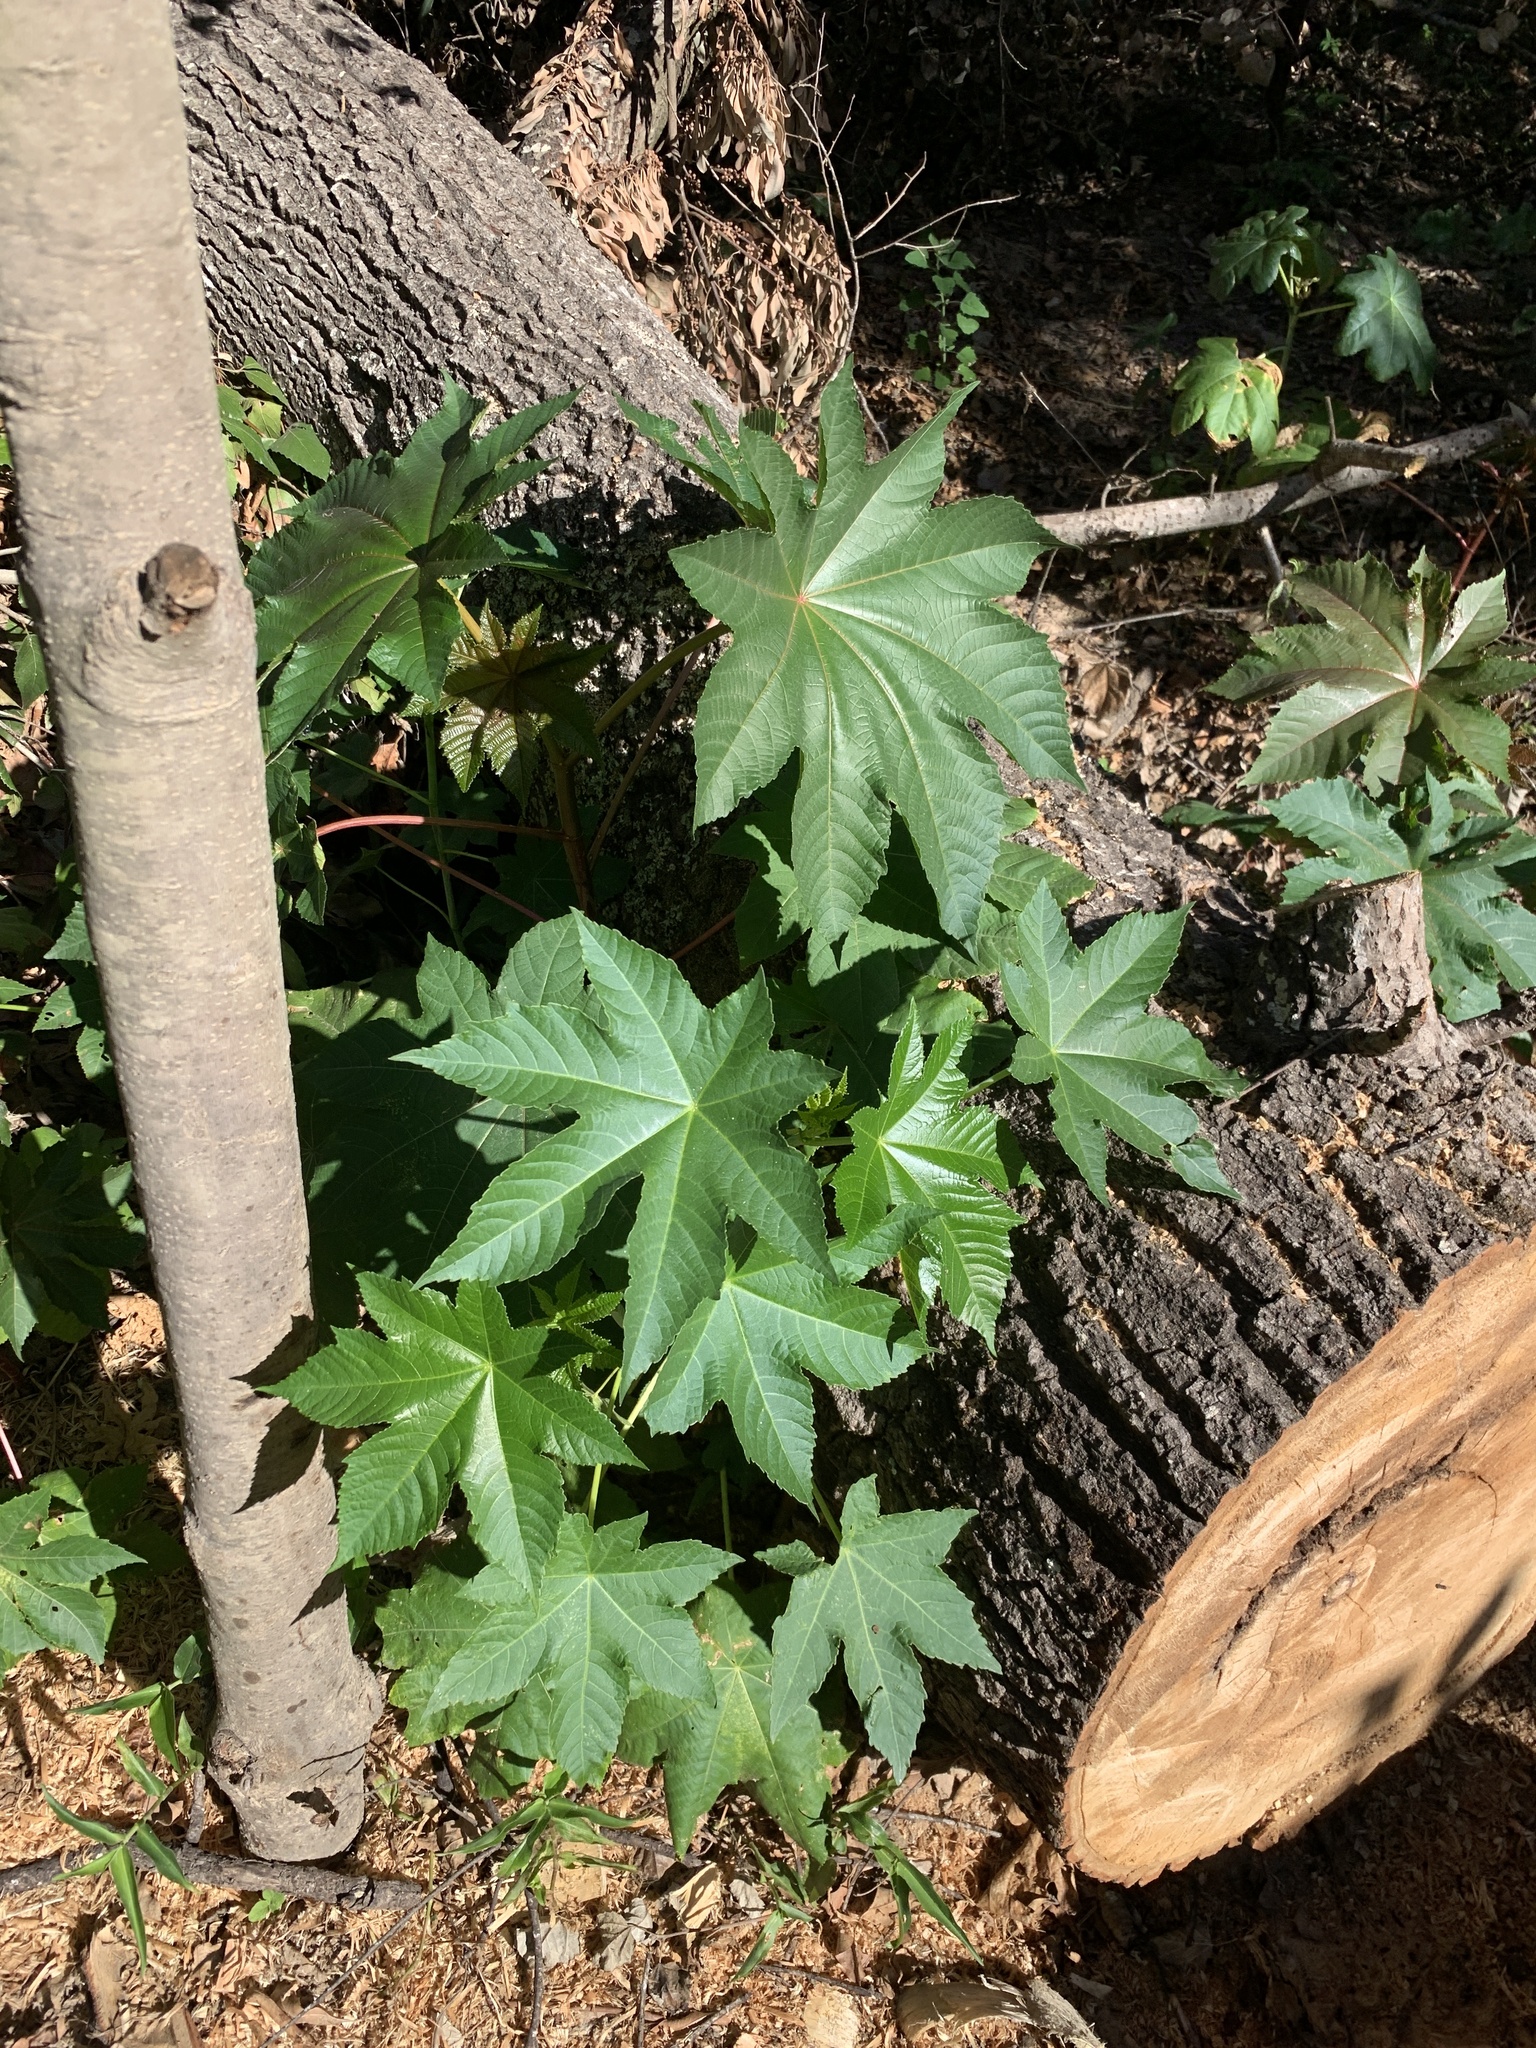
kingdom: Plantae
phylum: Tracheophyta
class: Magnoliopsida
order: Malpighiales
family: Euphorbiaceae
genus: Ricinus
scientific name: Ricinus communis
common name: Castor-oil-plant
